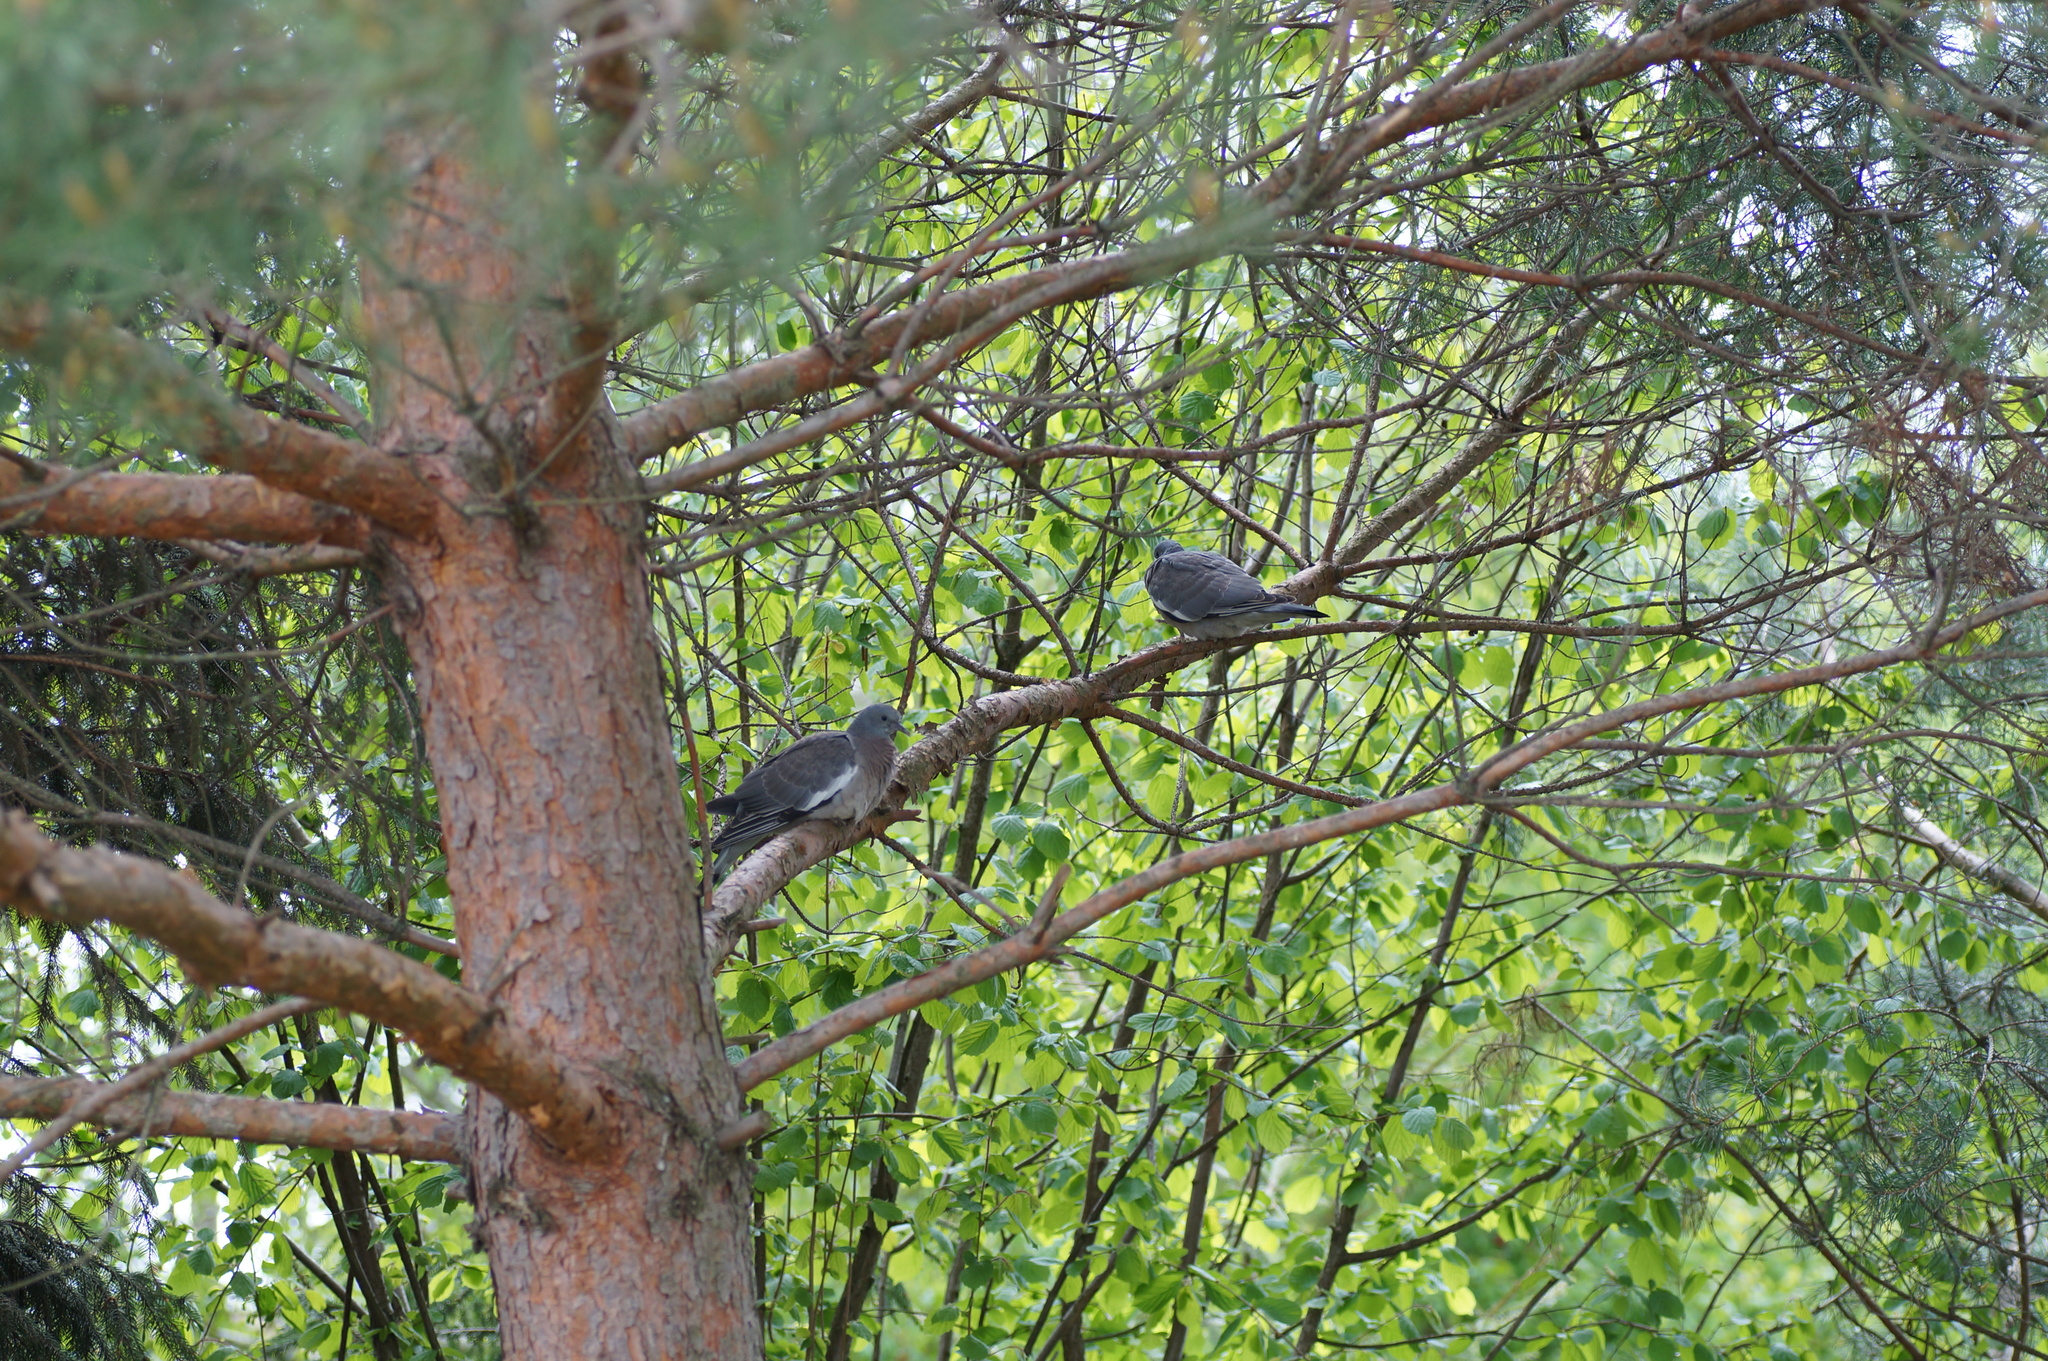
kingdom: Animalia
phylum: Chordata
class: Aves
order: Columbiformes
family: Columbidae
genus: Columba
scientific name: Columba palumbus
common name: Common wood pigeon
